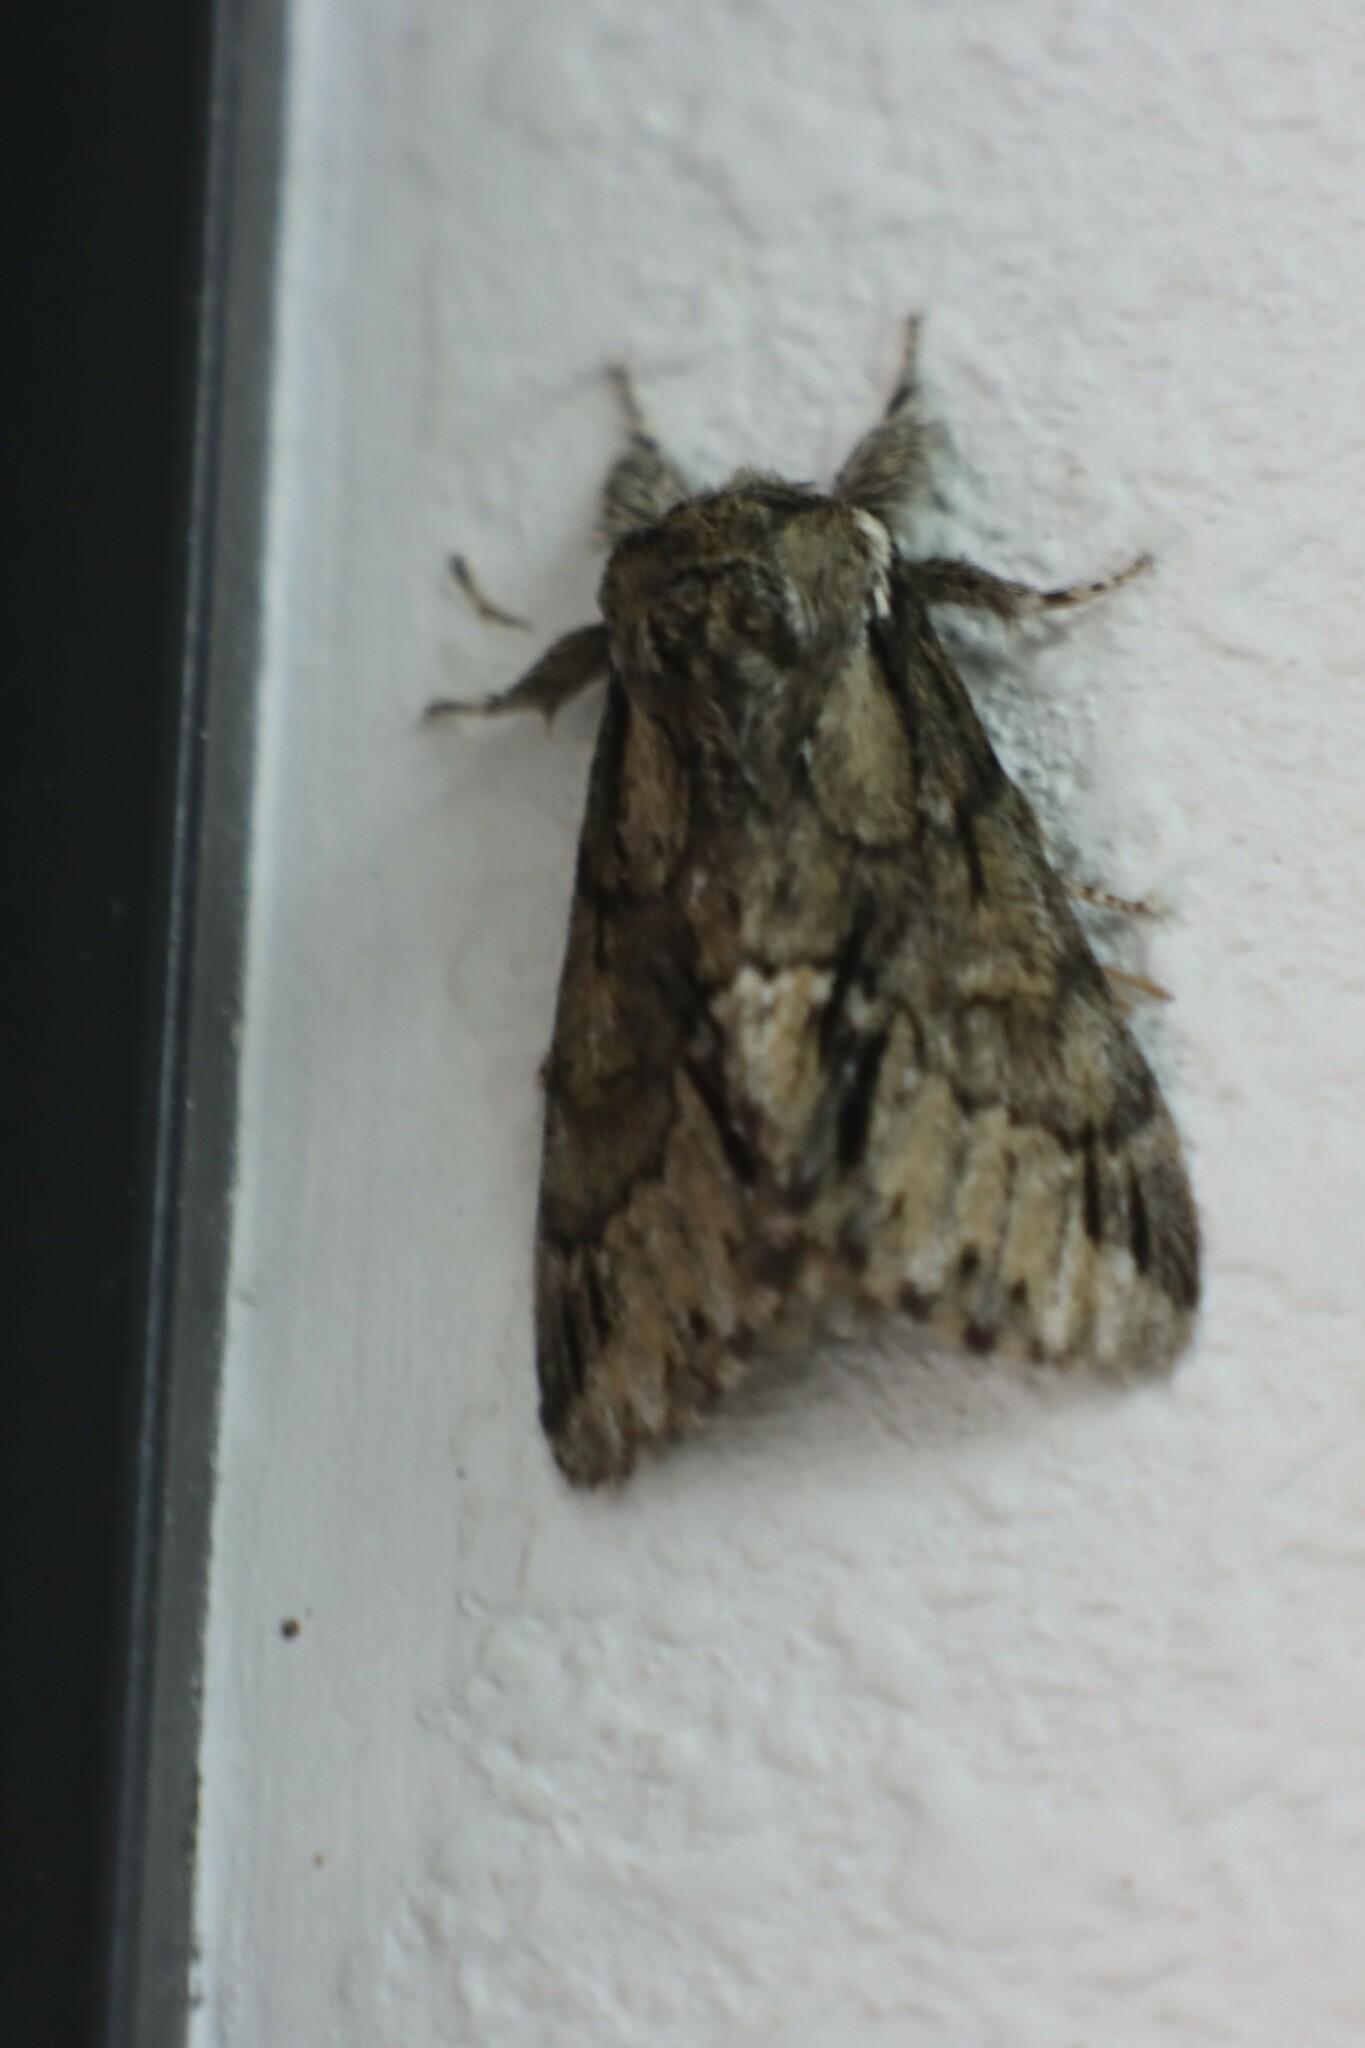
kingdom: Animalia
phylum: Arthropoda
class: Insecta
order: Lepidoptera
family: Notodontidae
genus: Paraeschra
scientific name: Paraeschra georgica
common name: Georgian prominent
